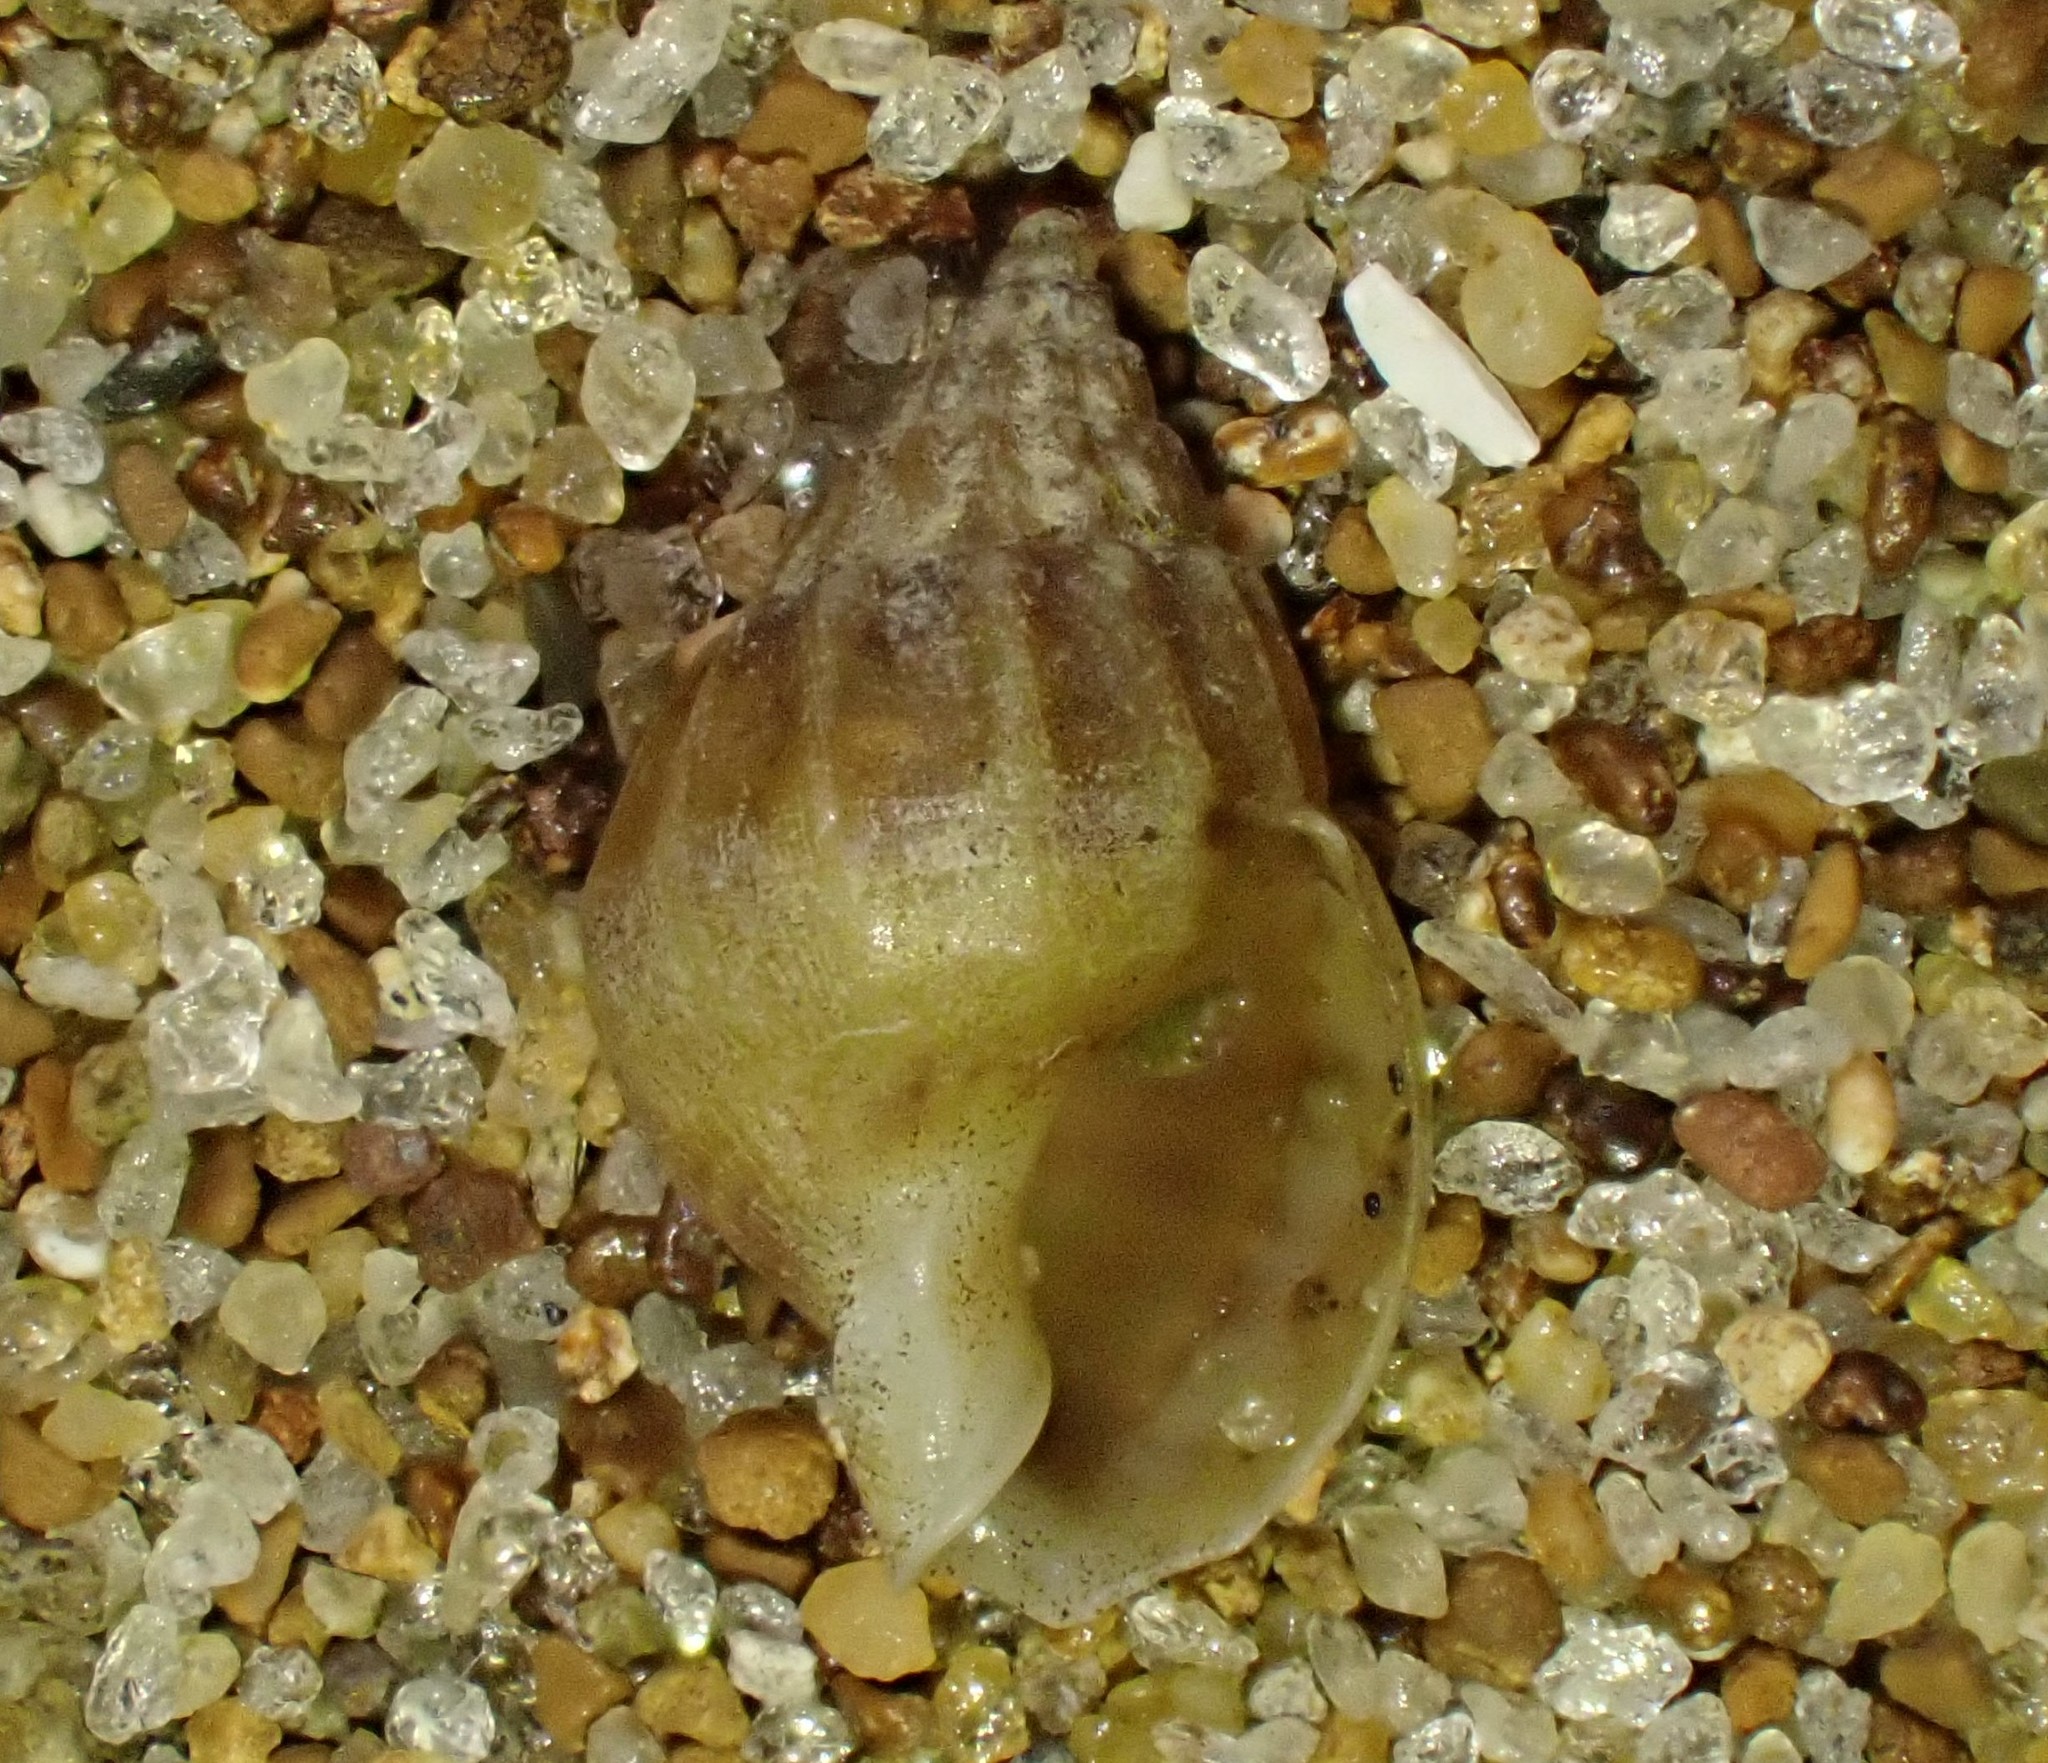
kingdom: Animalia
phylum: Mollusca
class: Gastropoda
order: Neogastropoda
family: Nassariidae
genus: Tritia
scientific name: Tritia burchardi
